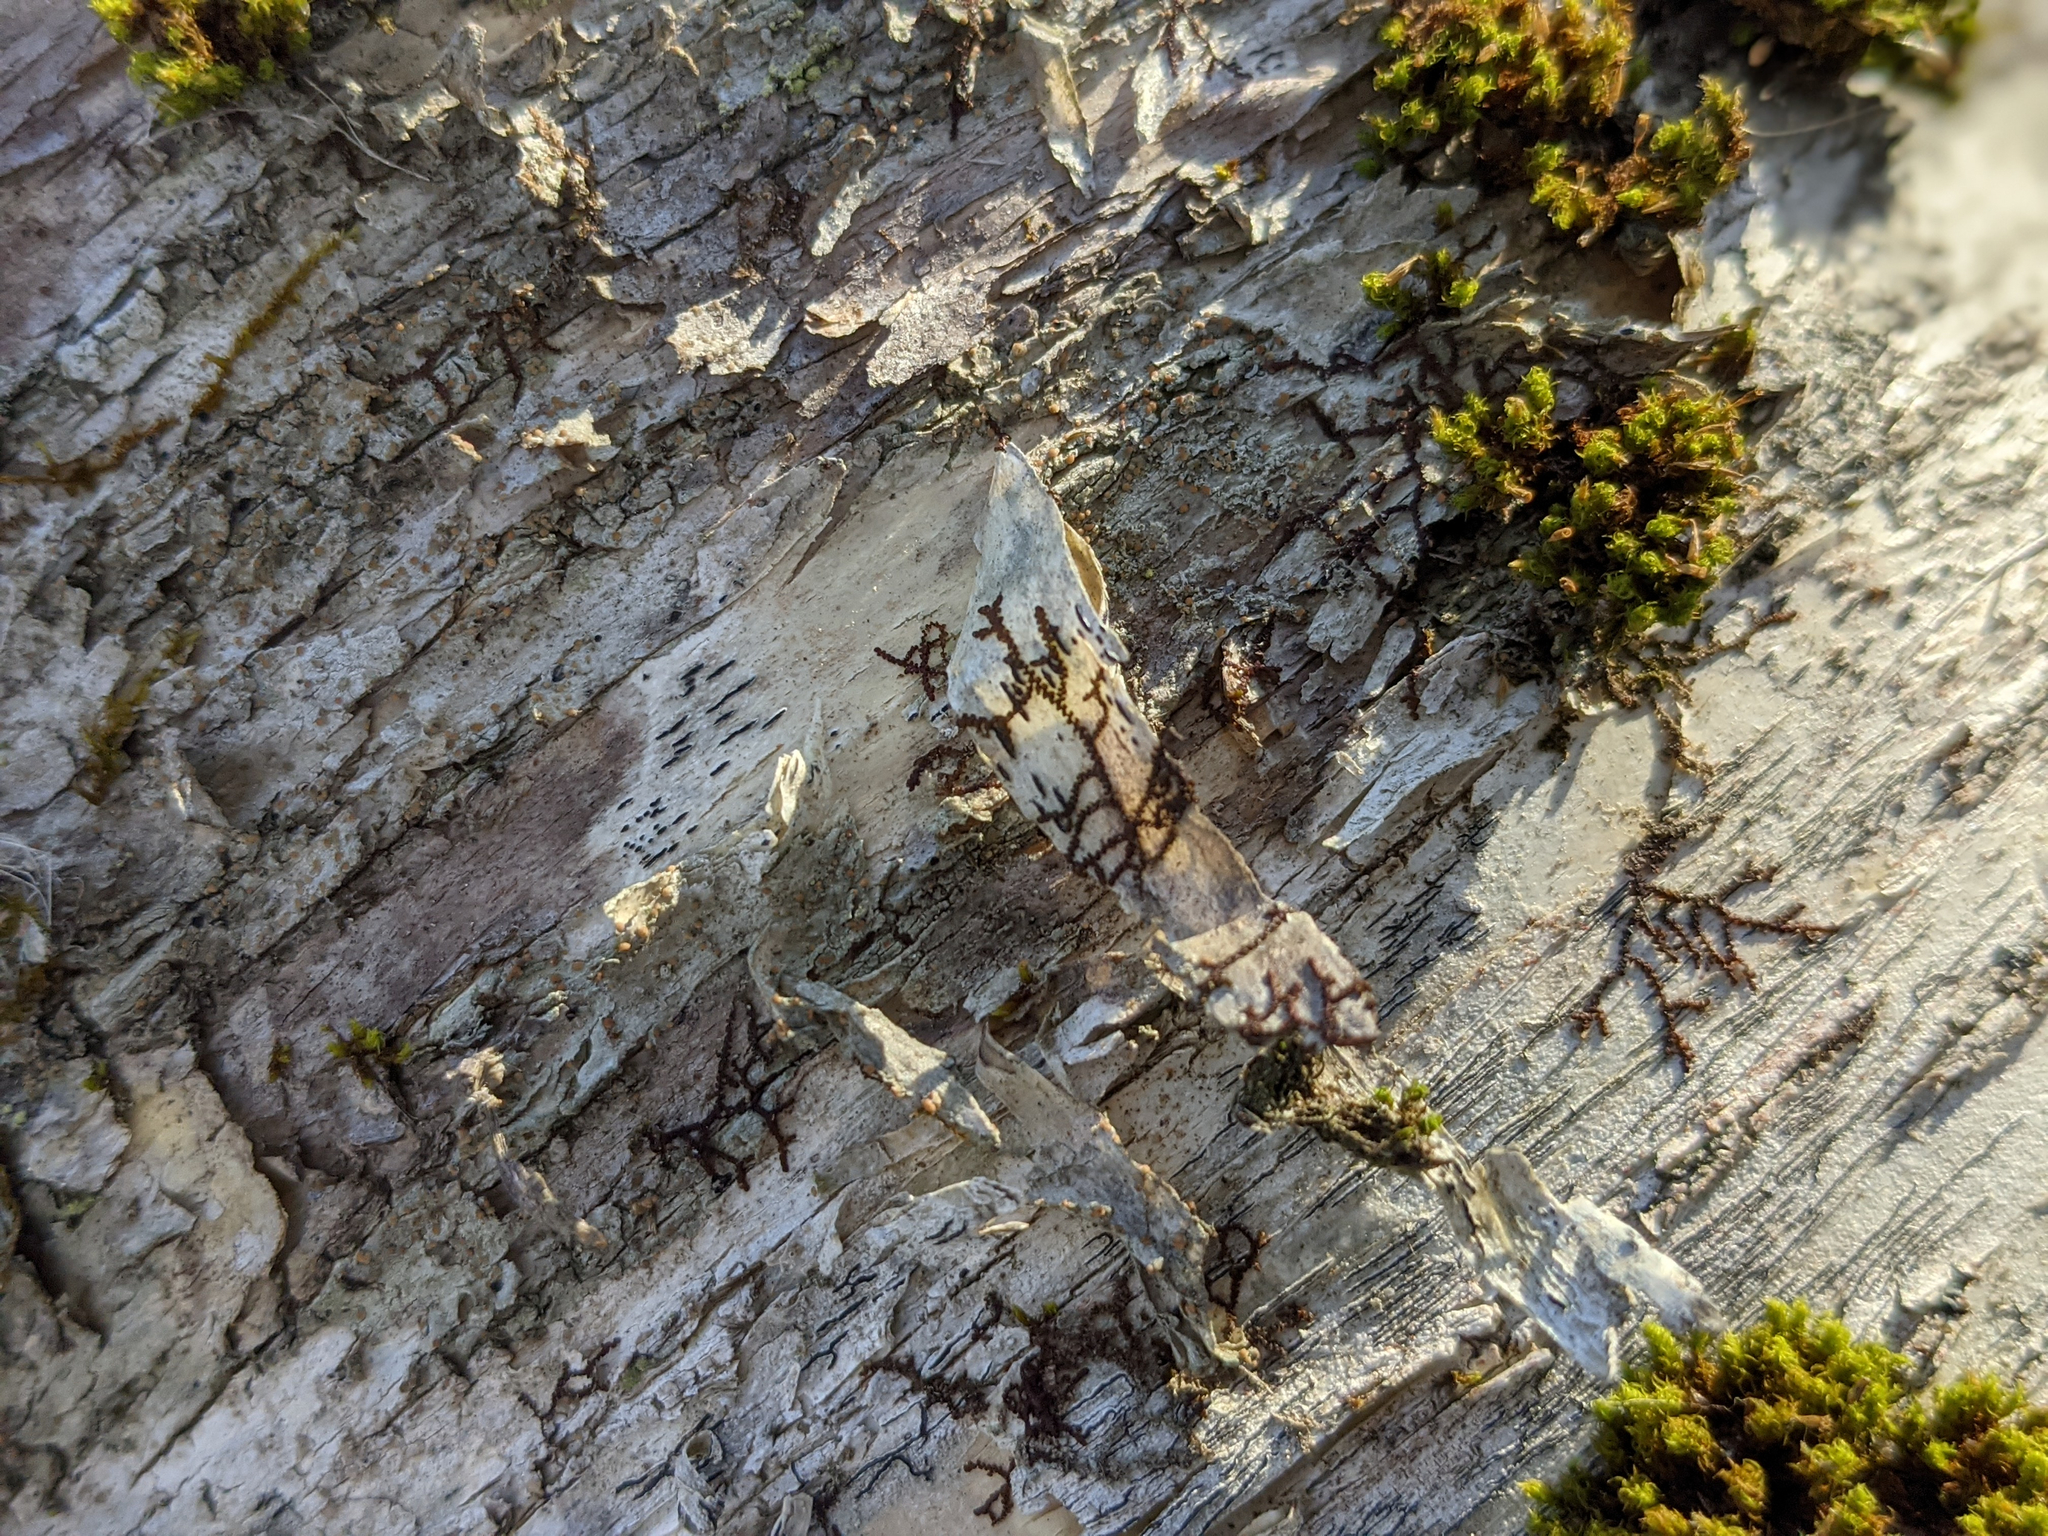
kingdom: Plantae
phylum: Bryophyta
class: Bryopsida
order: Orthotrichales
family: Orthotrichaceae
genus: Ulota
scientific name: Ulota crispa
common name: Crisped pincushion moss
